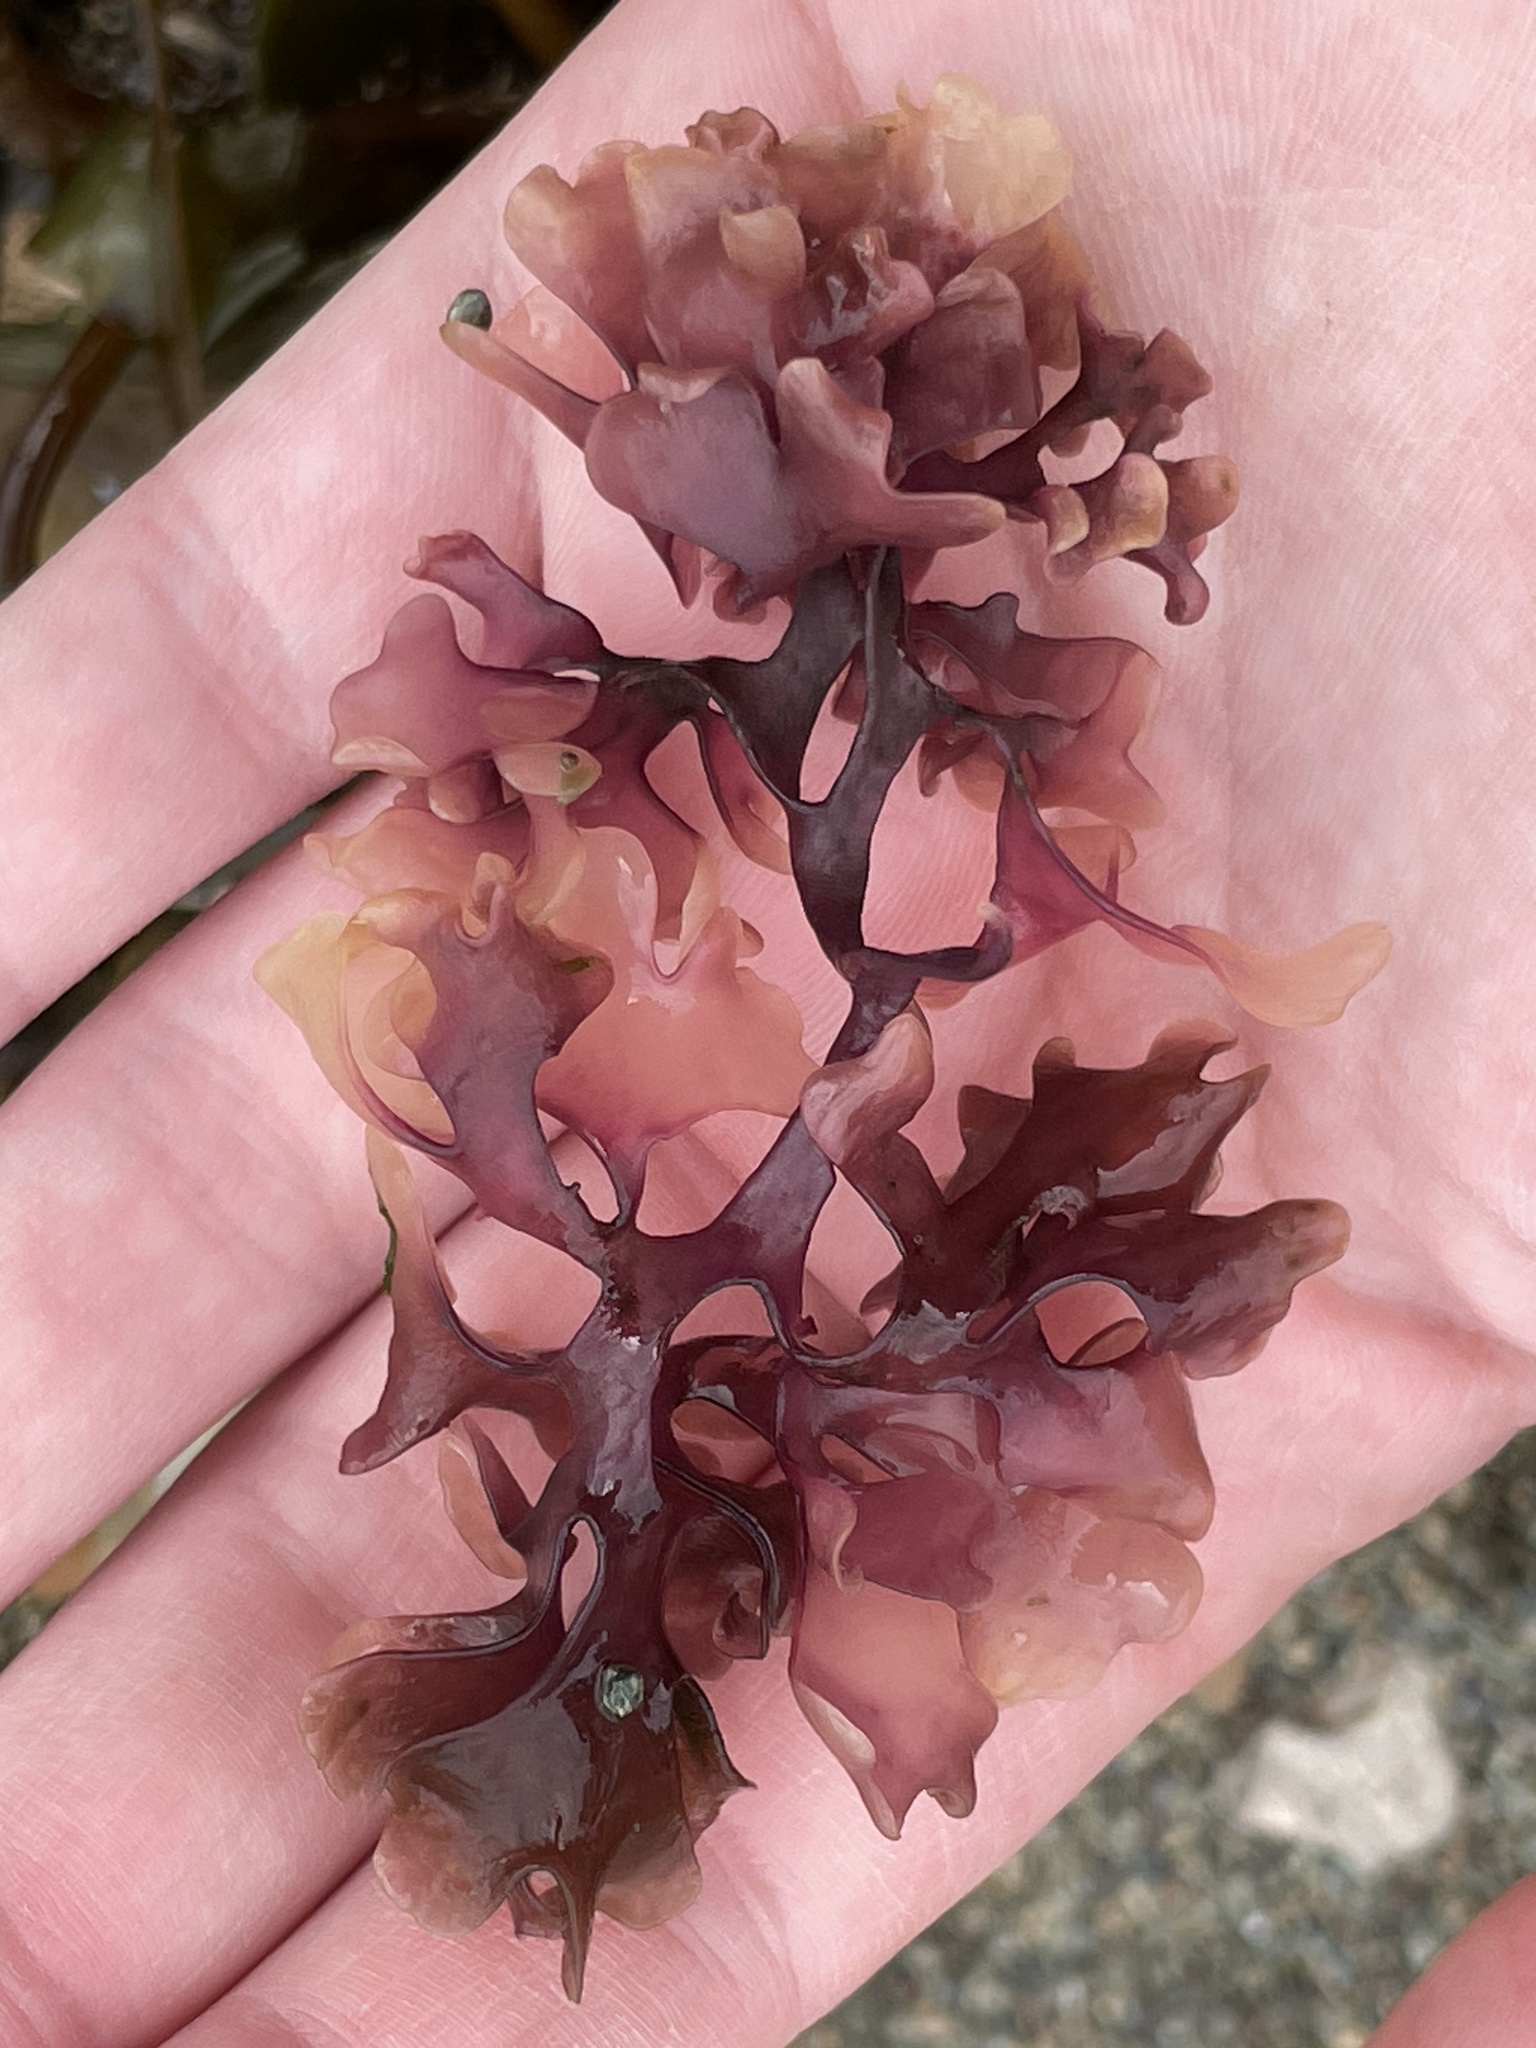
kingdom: Plantae
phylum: Rhodophyta
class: Florideophyceae
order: Gigartinales
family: Gigartinaceae
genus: Chondrus
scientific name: Chondrus crispus
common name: Carrageen
